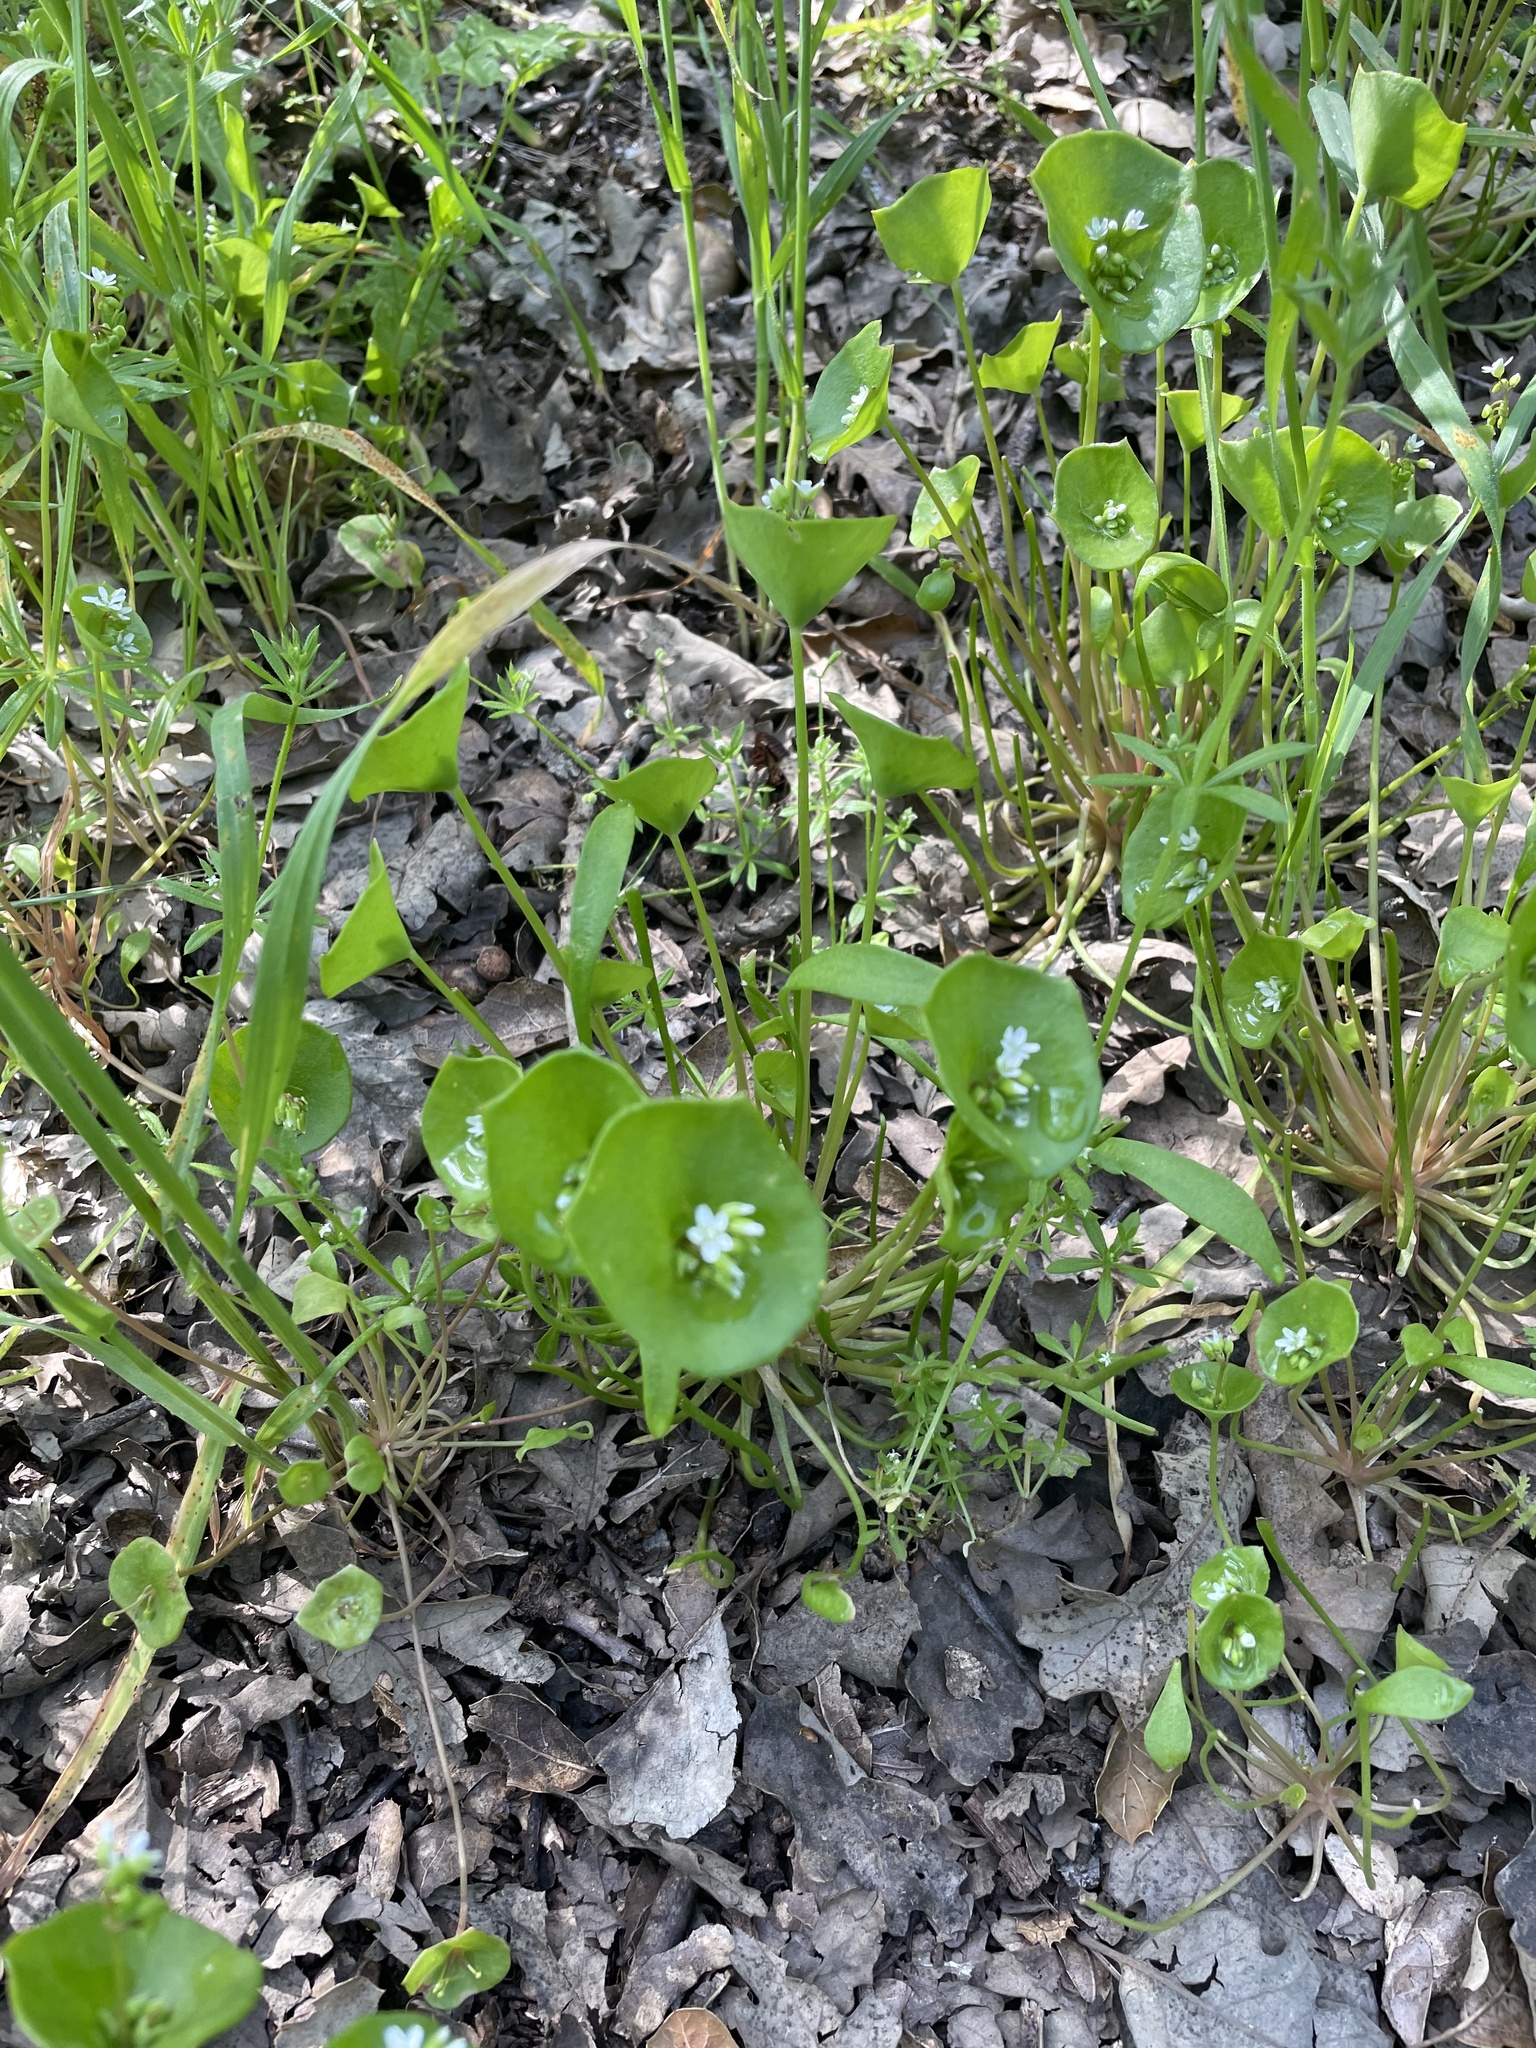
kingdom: Plantae
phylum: Tracheophyta
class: Magnoliopsida
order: Caryophyllales
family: Montiaceae
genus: Claytonia
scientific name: Claytonia perfoliata
